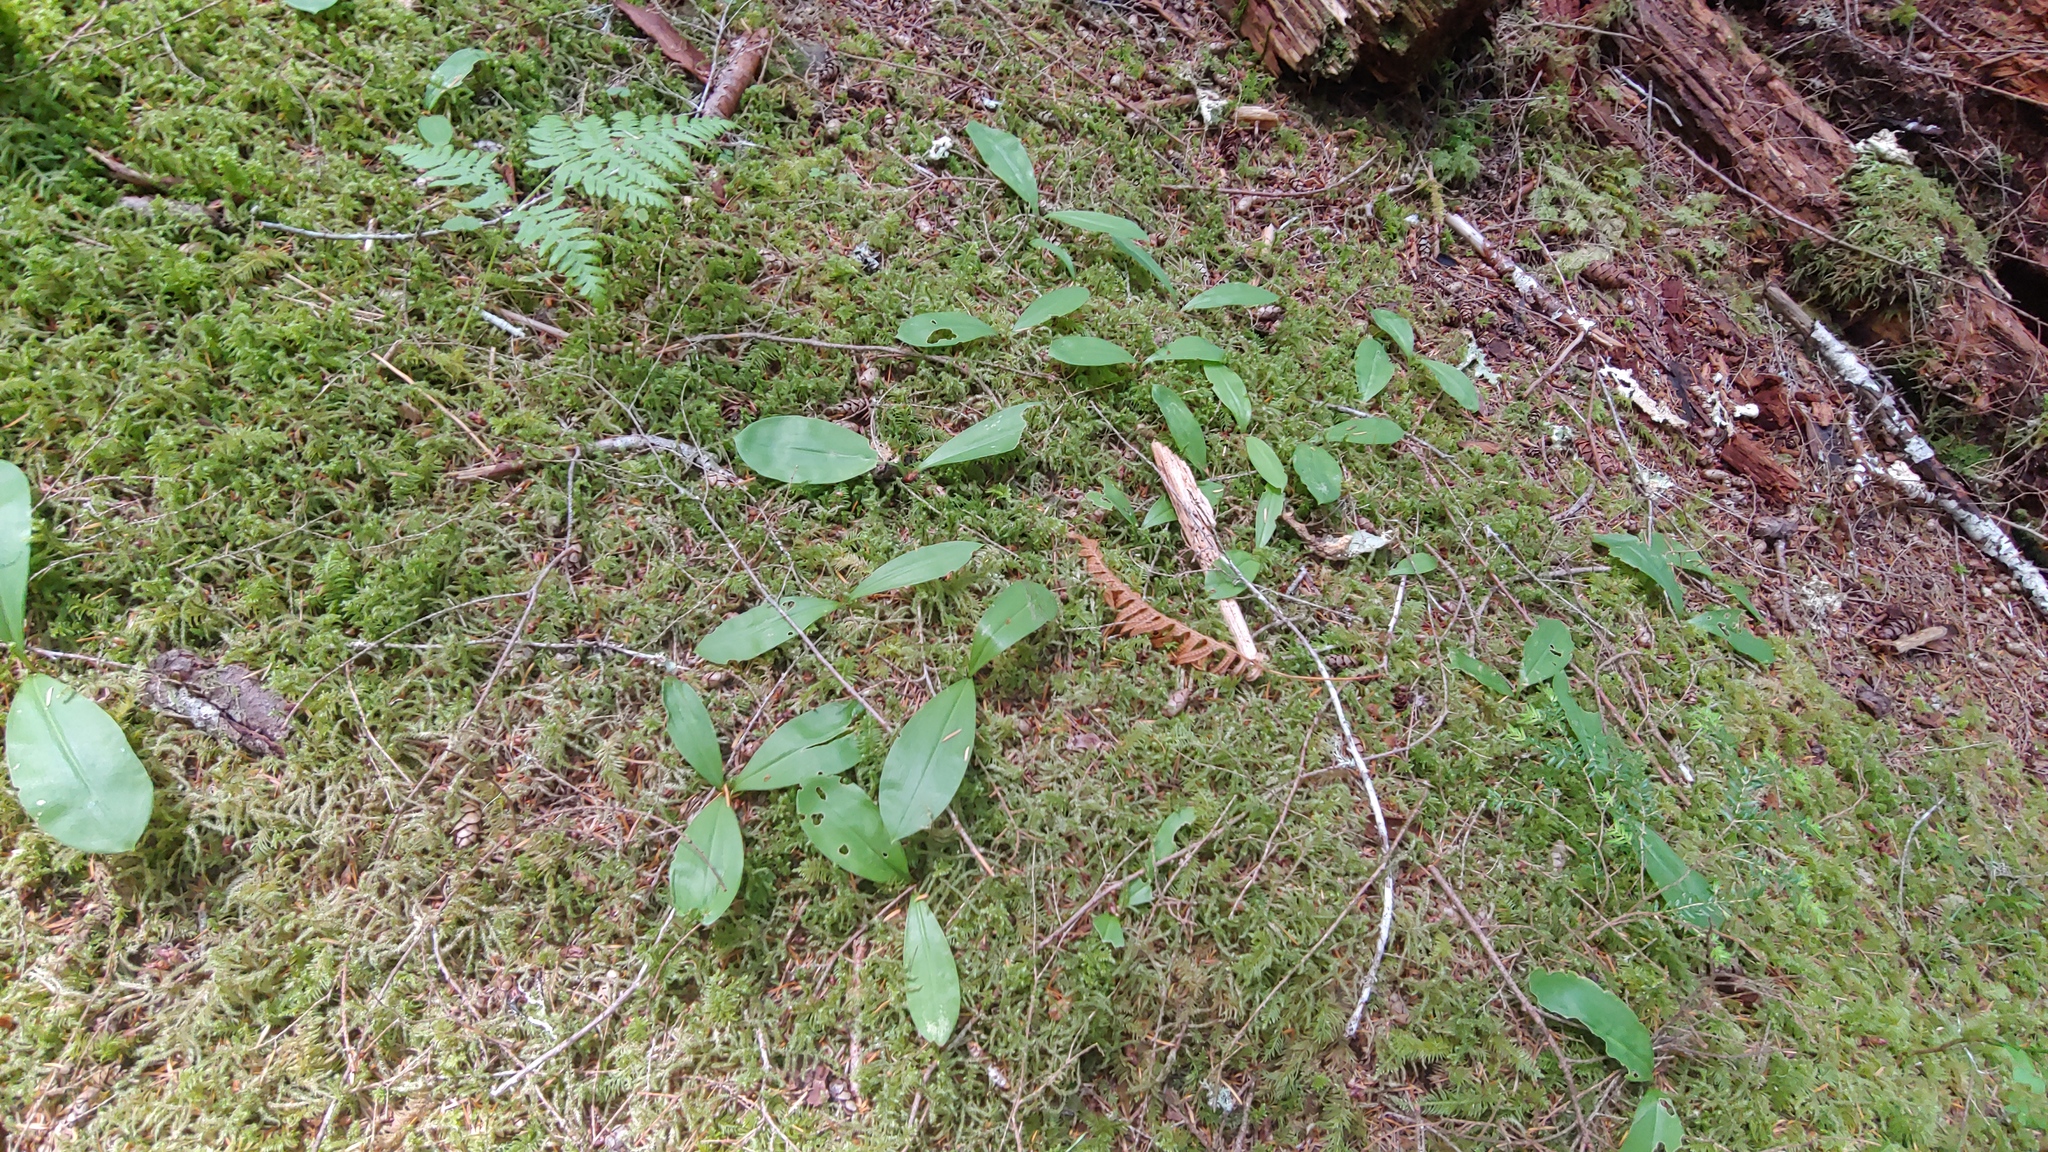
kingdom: Plantae
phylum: Tracheophyta
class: Liliopsida
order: Liliales
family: Liliaceae
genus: Clintonia
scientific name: Clintonia uniflora
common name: Queen's cup
